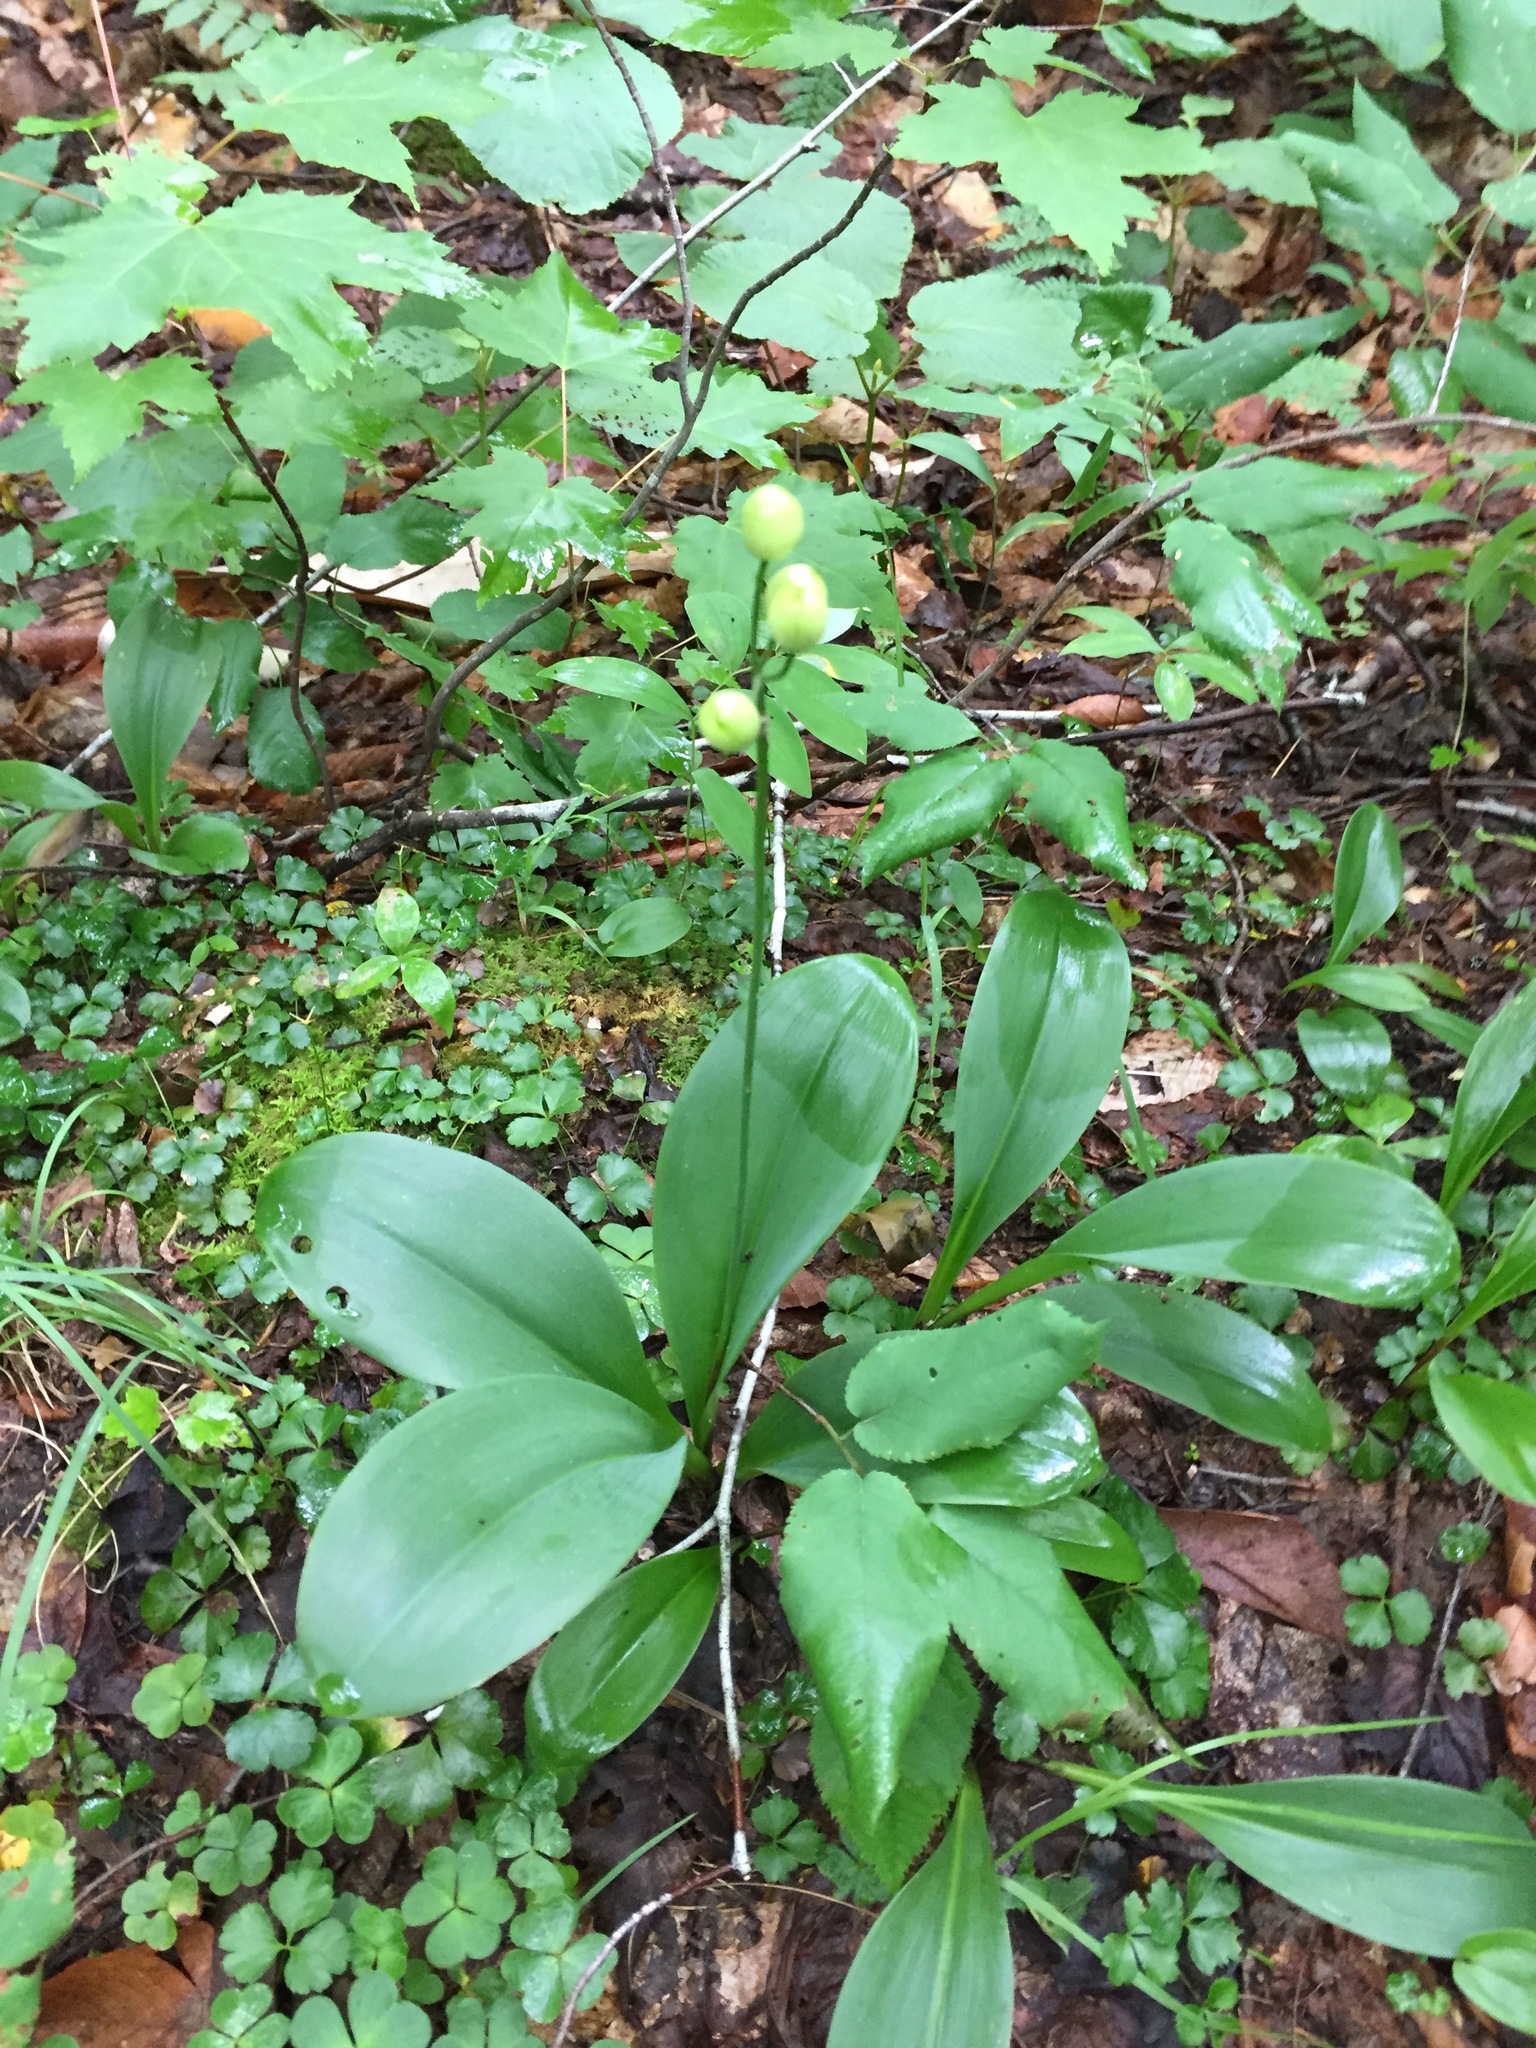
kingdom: Plantae
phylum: Tracheophyta
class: Liliopsida
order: Liliales
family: Liliaceae
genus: Clintonia
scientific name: Clintonia borealis
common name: Yellow clintonia
